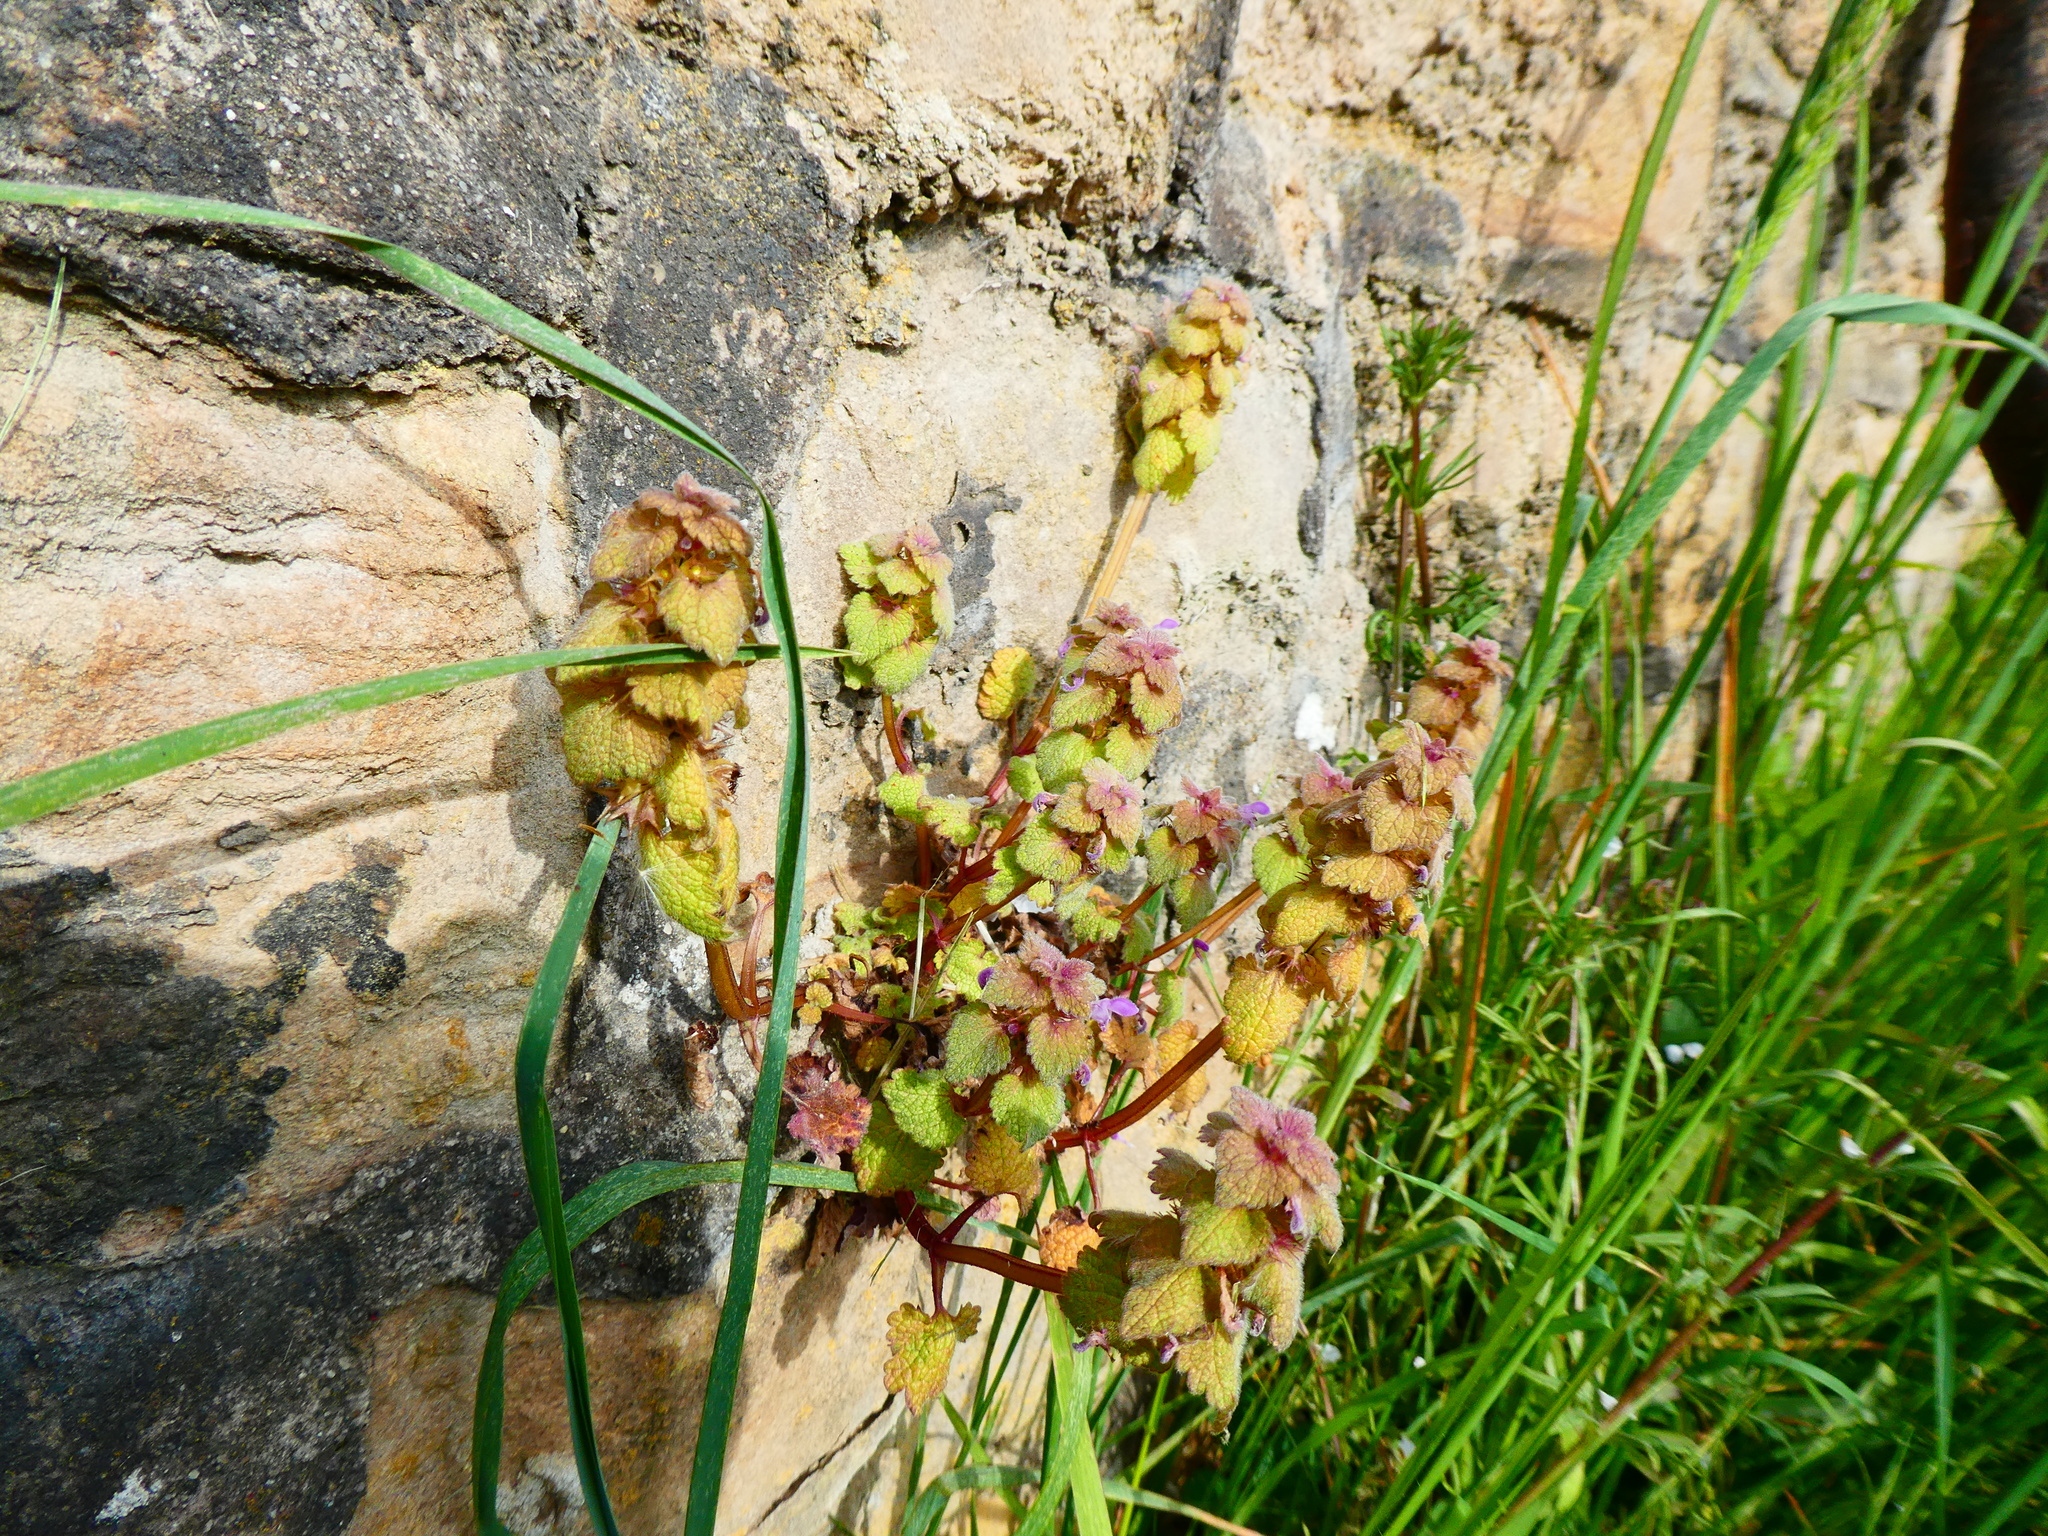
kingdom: Plantae
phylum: Tracheophyta
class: Magnoliopsida
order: Lamiales
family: Lamiaceae
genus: Lamium
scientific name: Lamium purpureum
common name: Red dead-nettle
